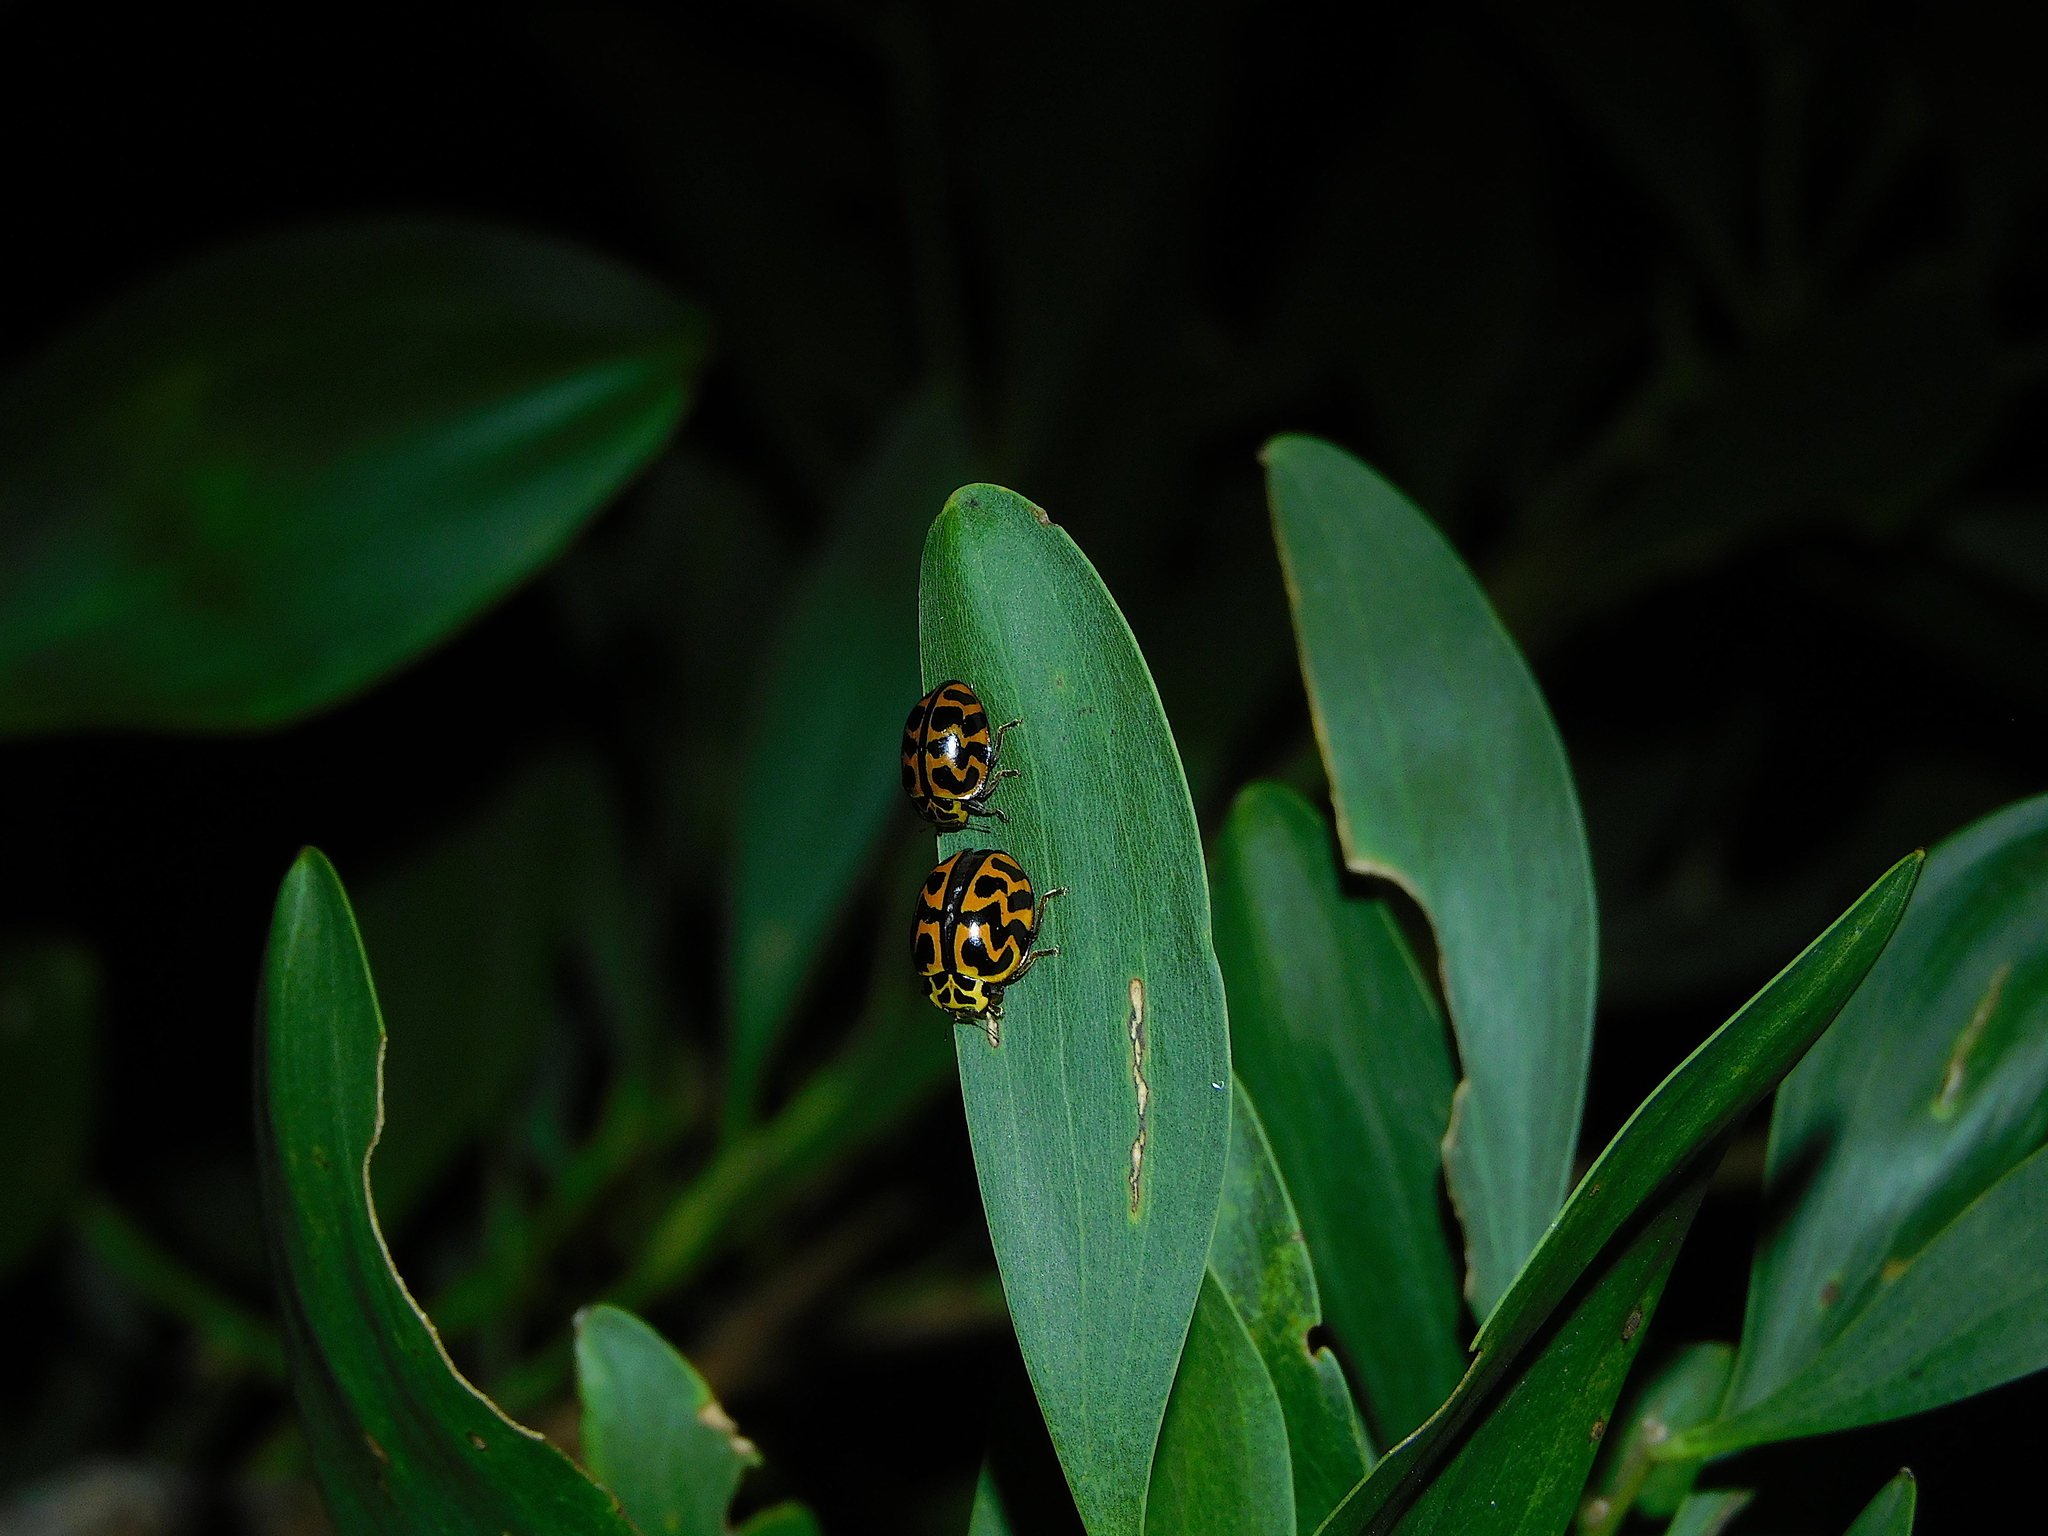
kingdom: Animalia
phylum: Arthropoda
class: Insecta
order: Coleoptera
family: Coccinellidae
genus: Cleobora
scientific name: Cleobora
